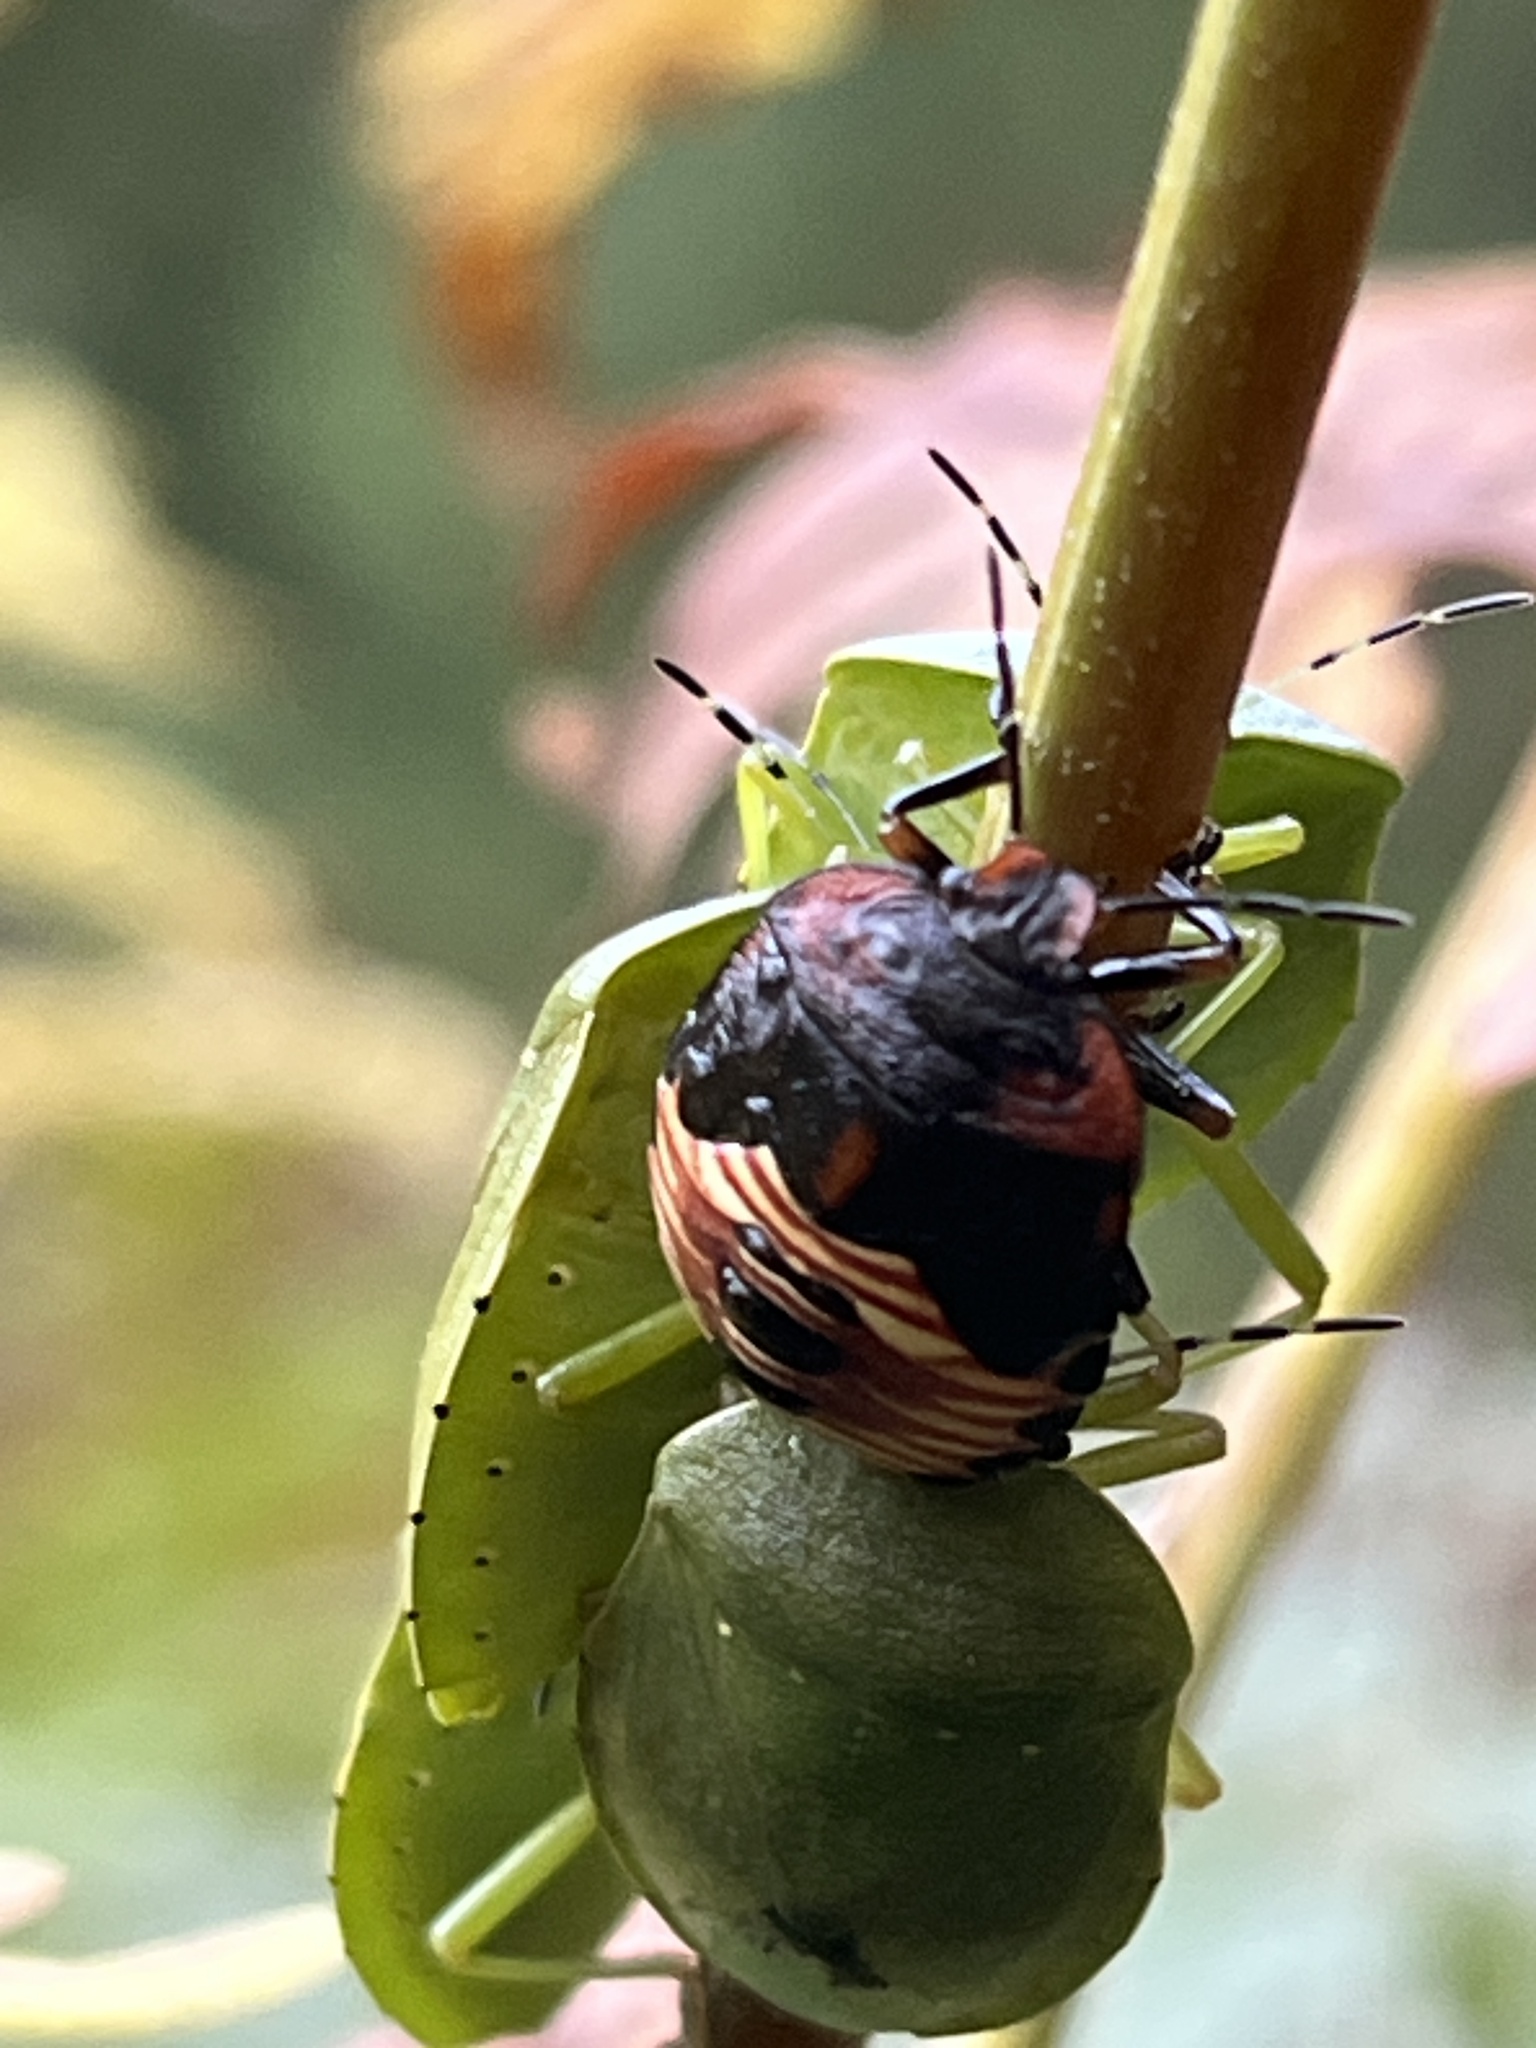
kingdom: Animalia
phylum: Arthropoda
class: Insecta
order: Hemiptera
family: Pentatomidae
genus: Chinavia
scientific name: Chinavia hilaris
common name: Green stink bug
